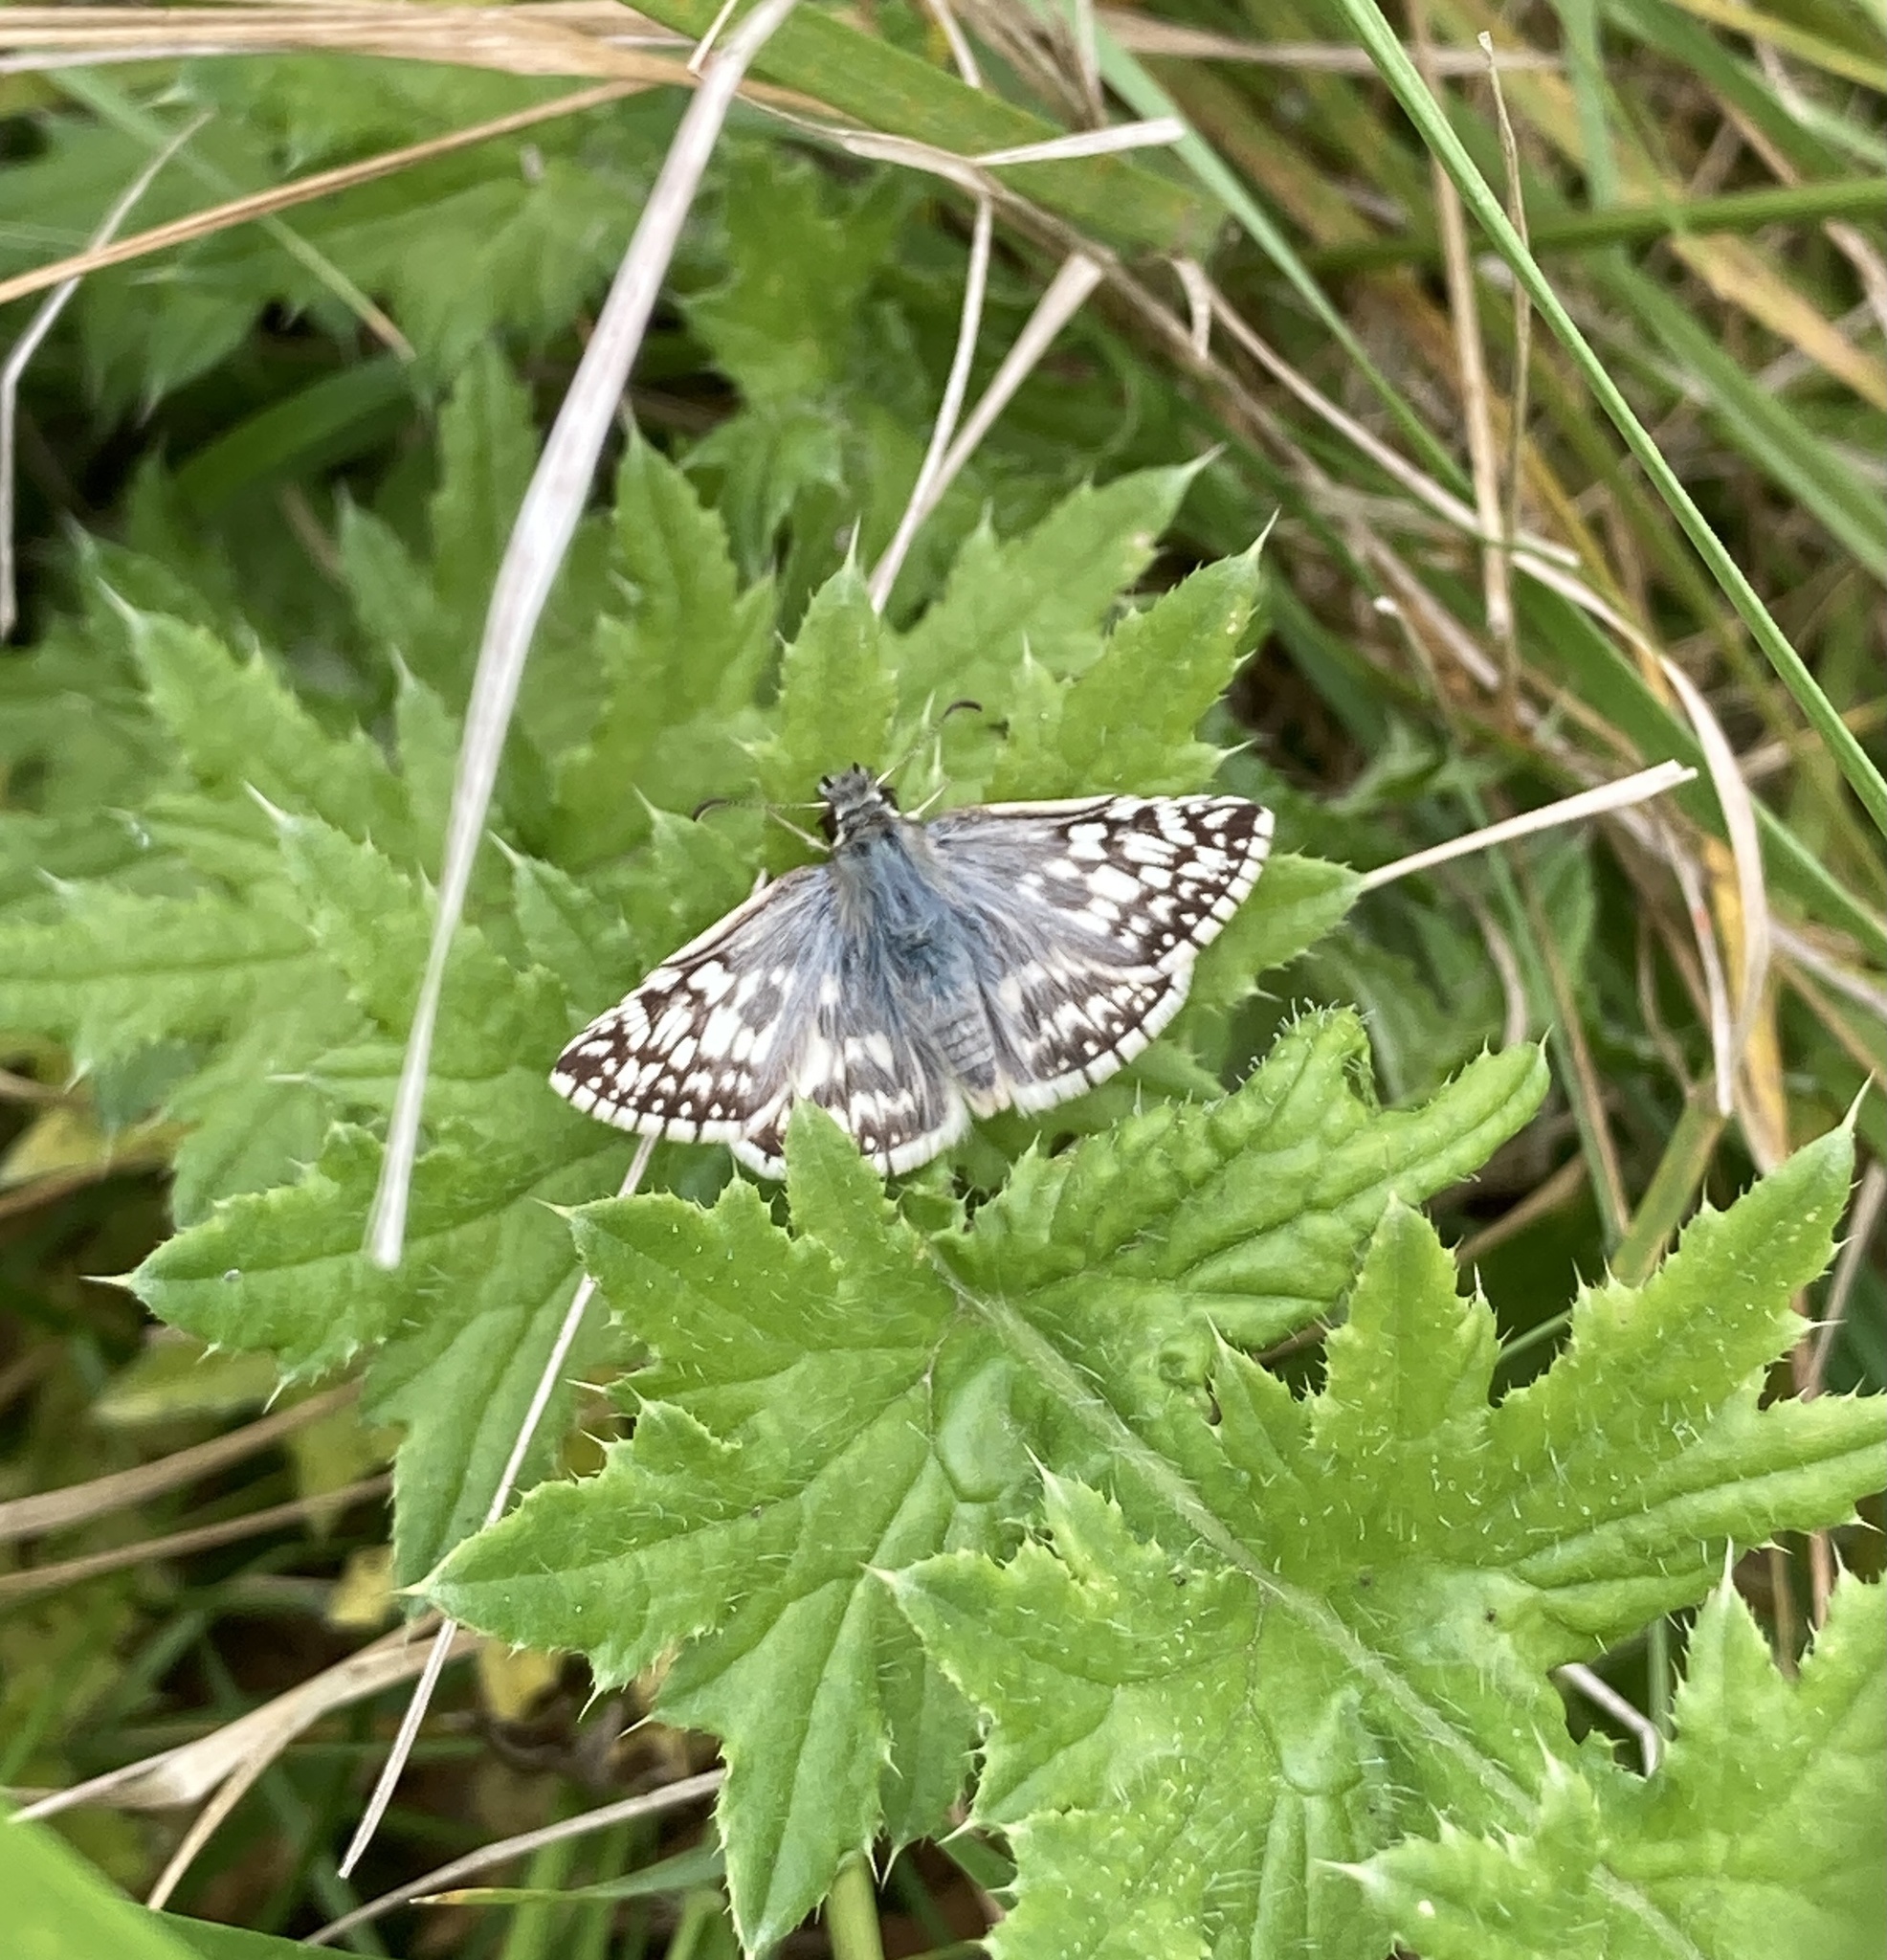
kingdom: Animalia
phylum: Arthropoda
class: Insecta
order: Lepidoptera
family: Hesperiidae
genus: Heliopetes
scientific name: Heliopetes americanus
